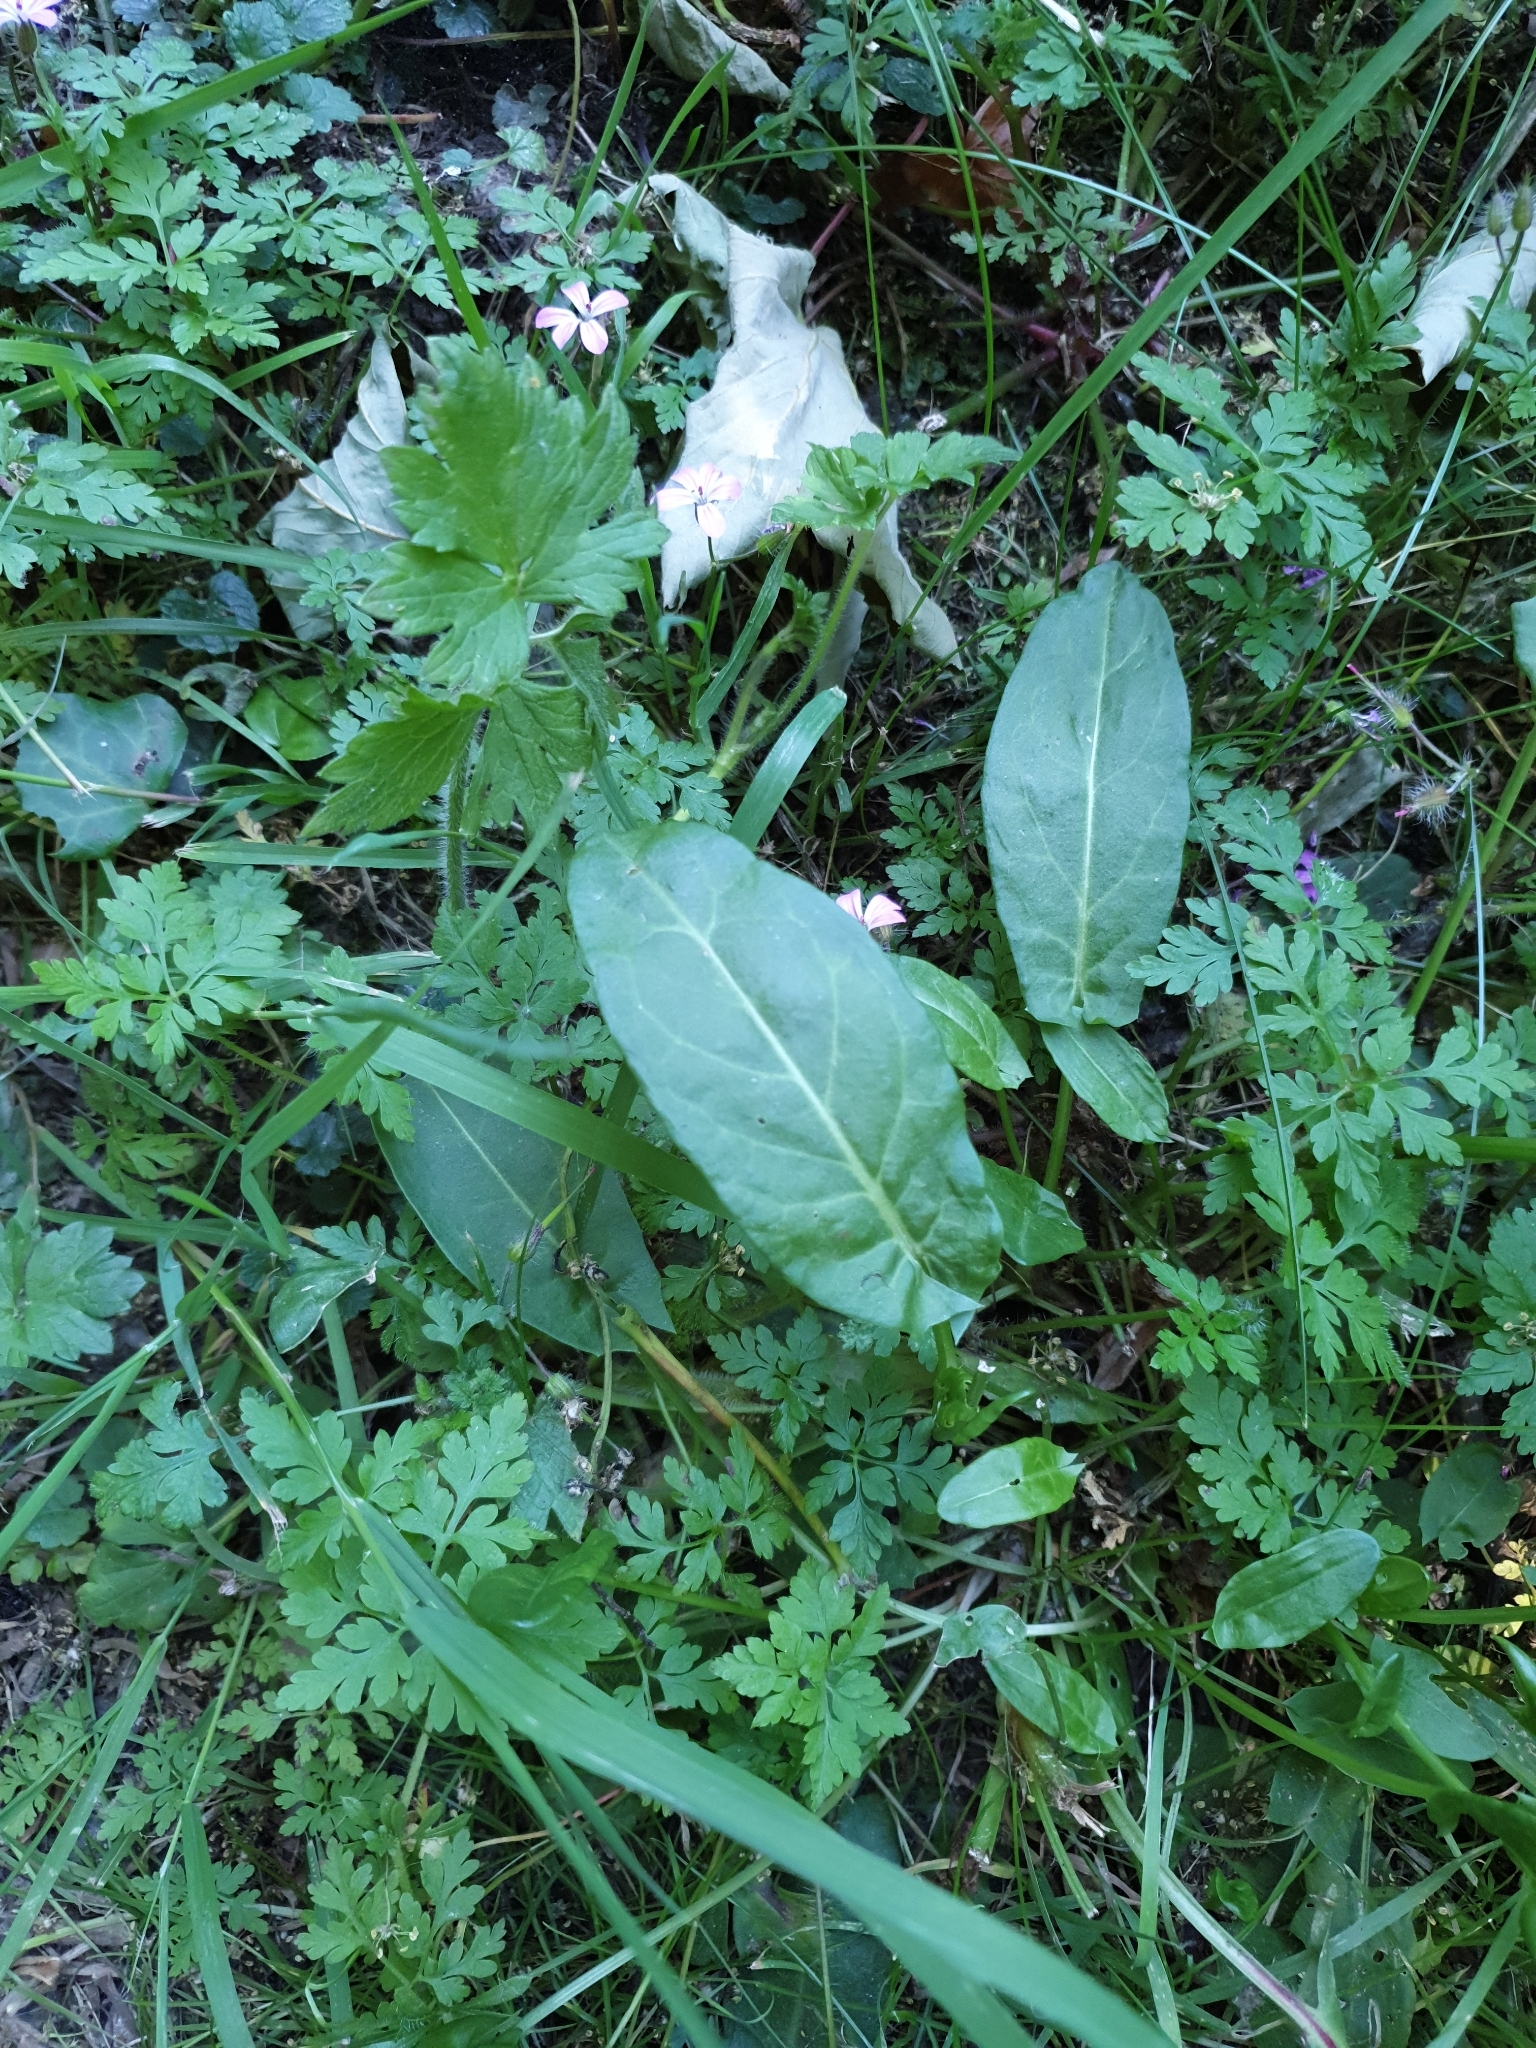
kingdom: Plantae
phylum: Tracheophyta
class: Magnoliopsida
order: Caryophyllales
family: Polygonaceae
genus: Rumex
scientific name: Rumex acetosa
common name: Garden sorrel
